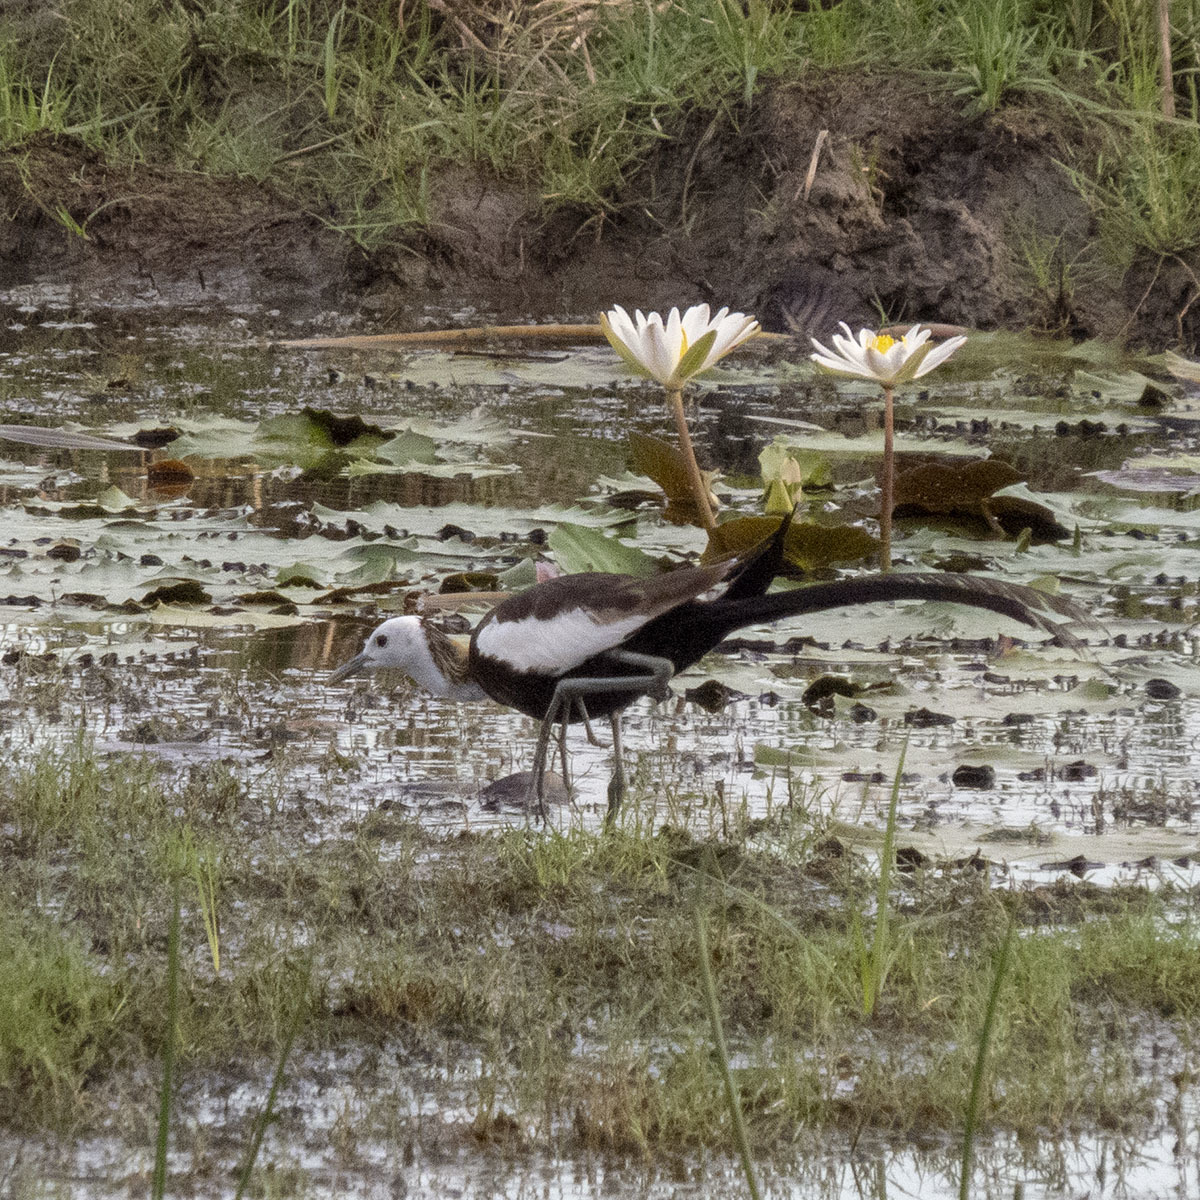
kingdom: Animalia
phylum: Chordata
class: Aves
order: Charadriiformes
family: Jacanidae
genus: Hydrophasianus
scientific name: Hydrophasianus chirurgus
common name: Pheasant-tailed jacana
